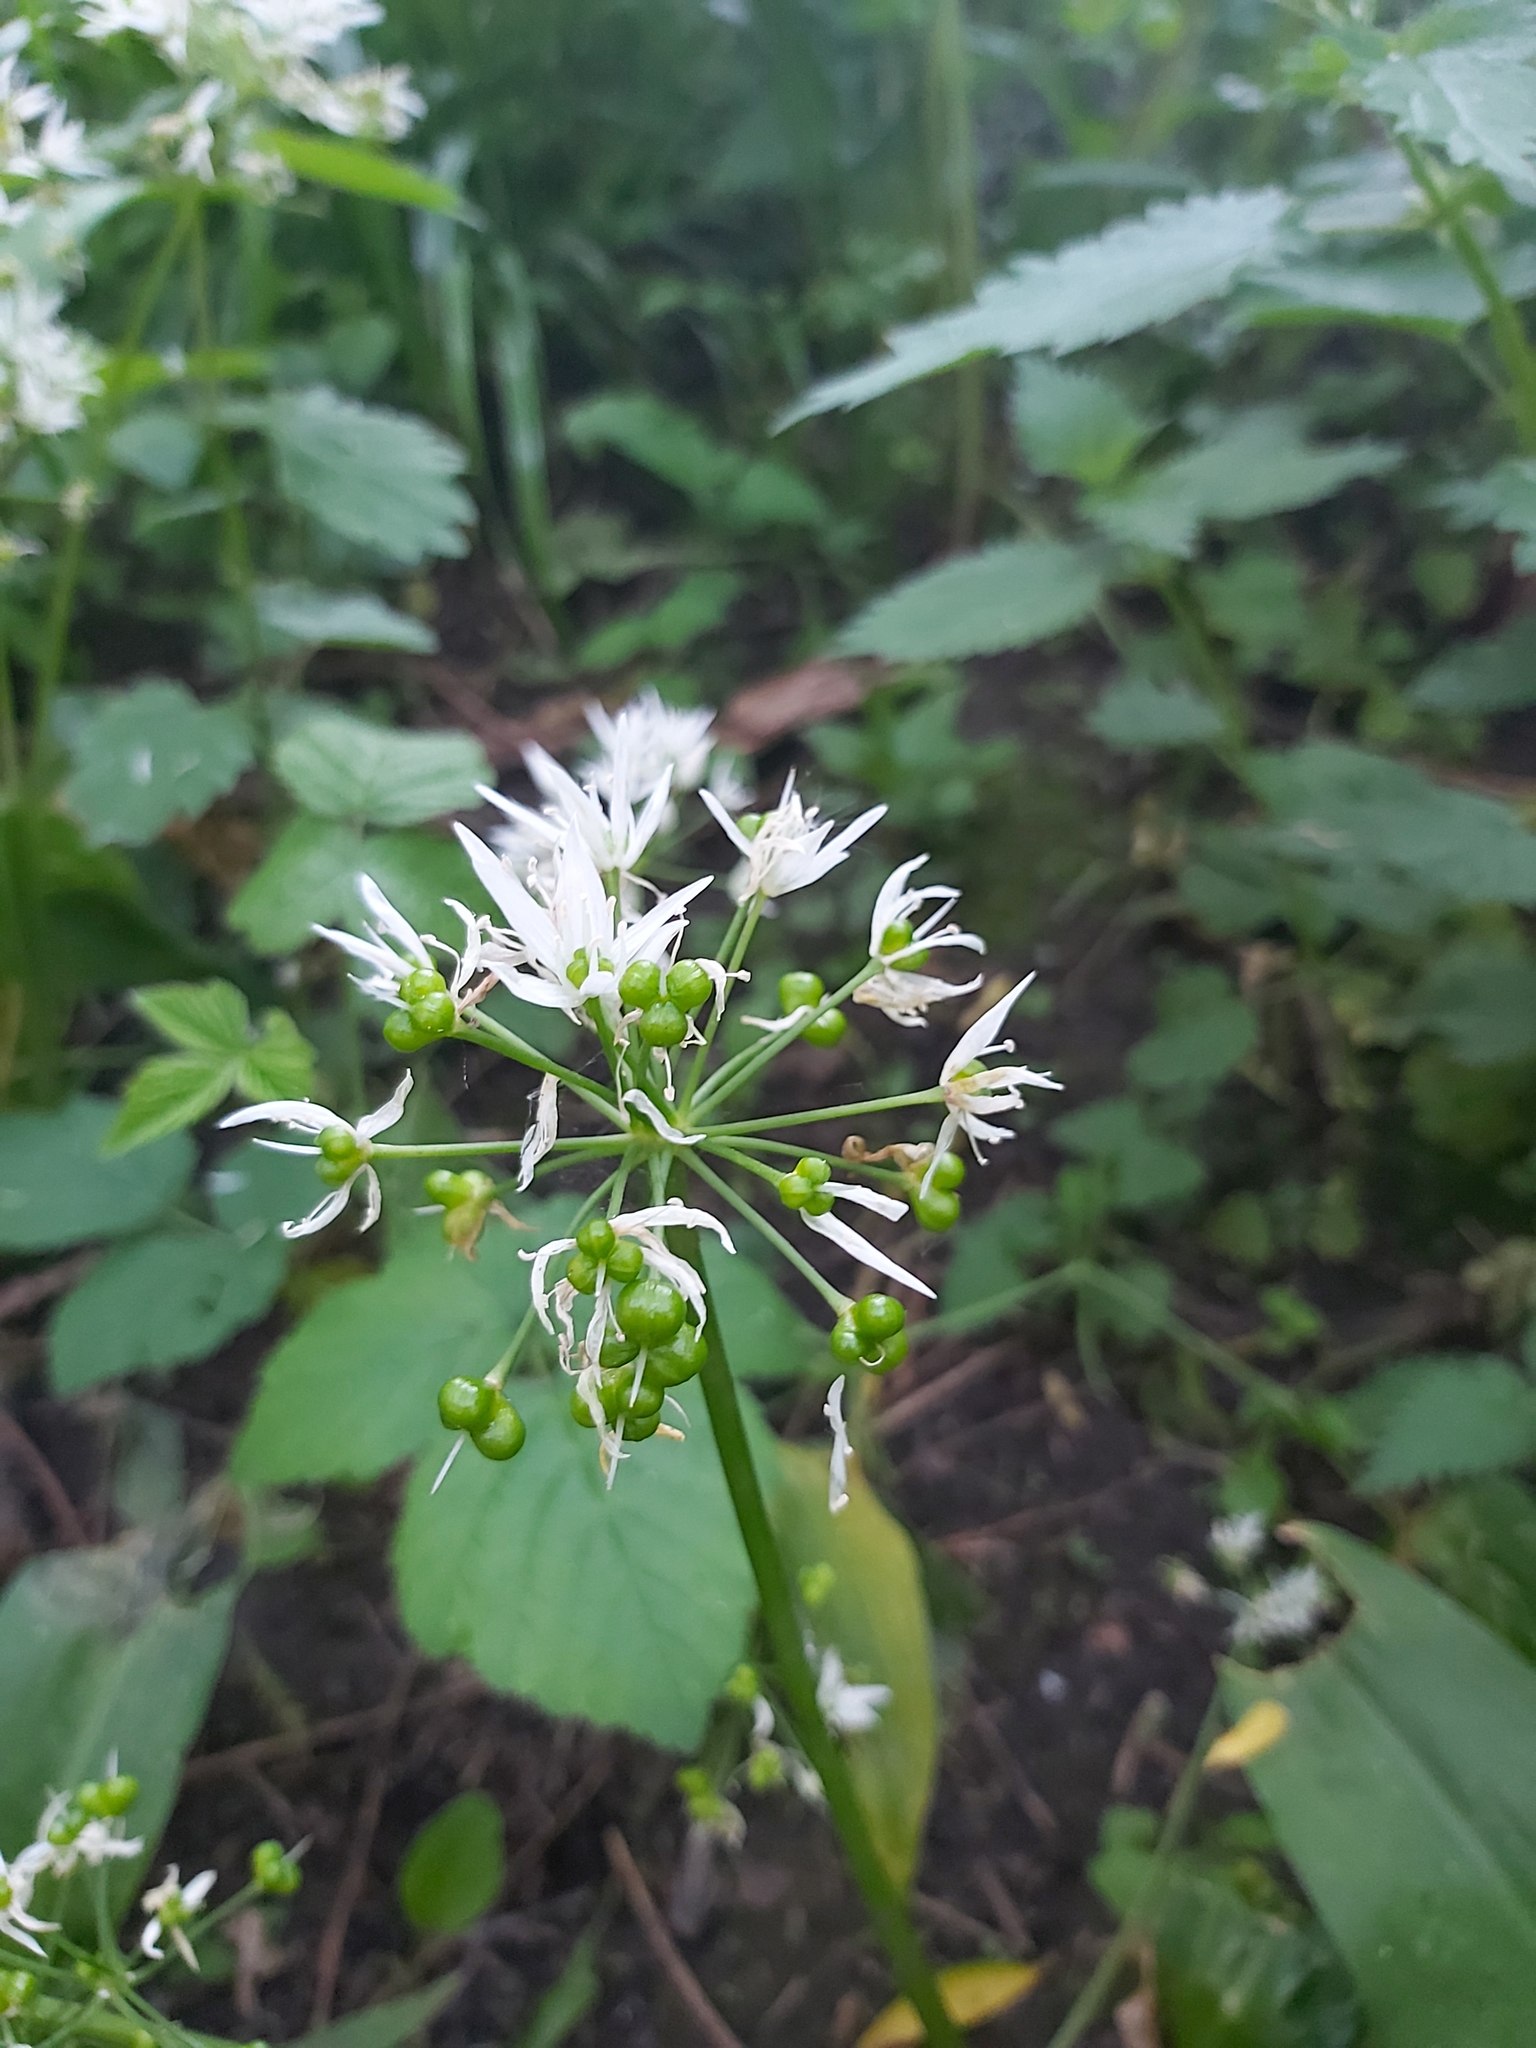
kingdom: Plantae
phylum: Tracheophyta
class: Liliopsida
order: Asparagales
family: Amaryllidaceae
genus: Allium
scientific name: Allium ursinum
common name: Ramsons
